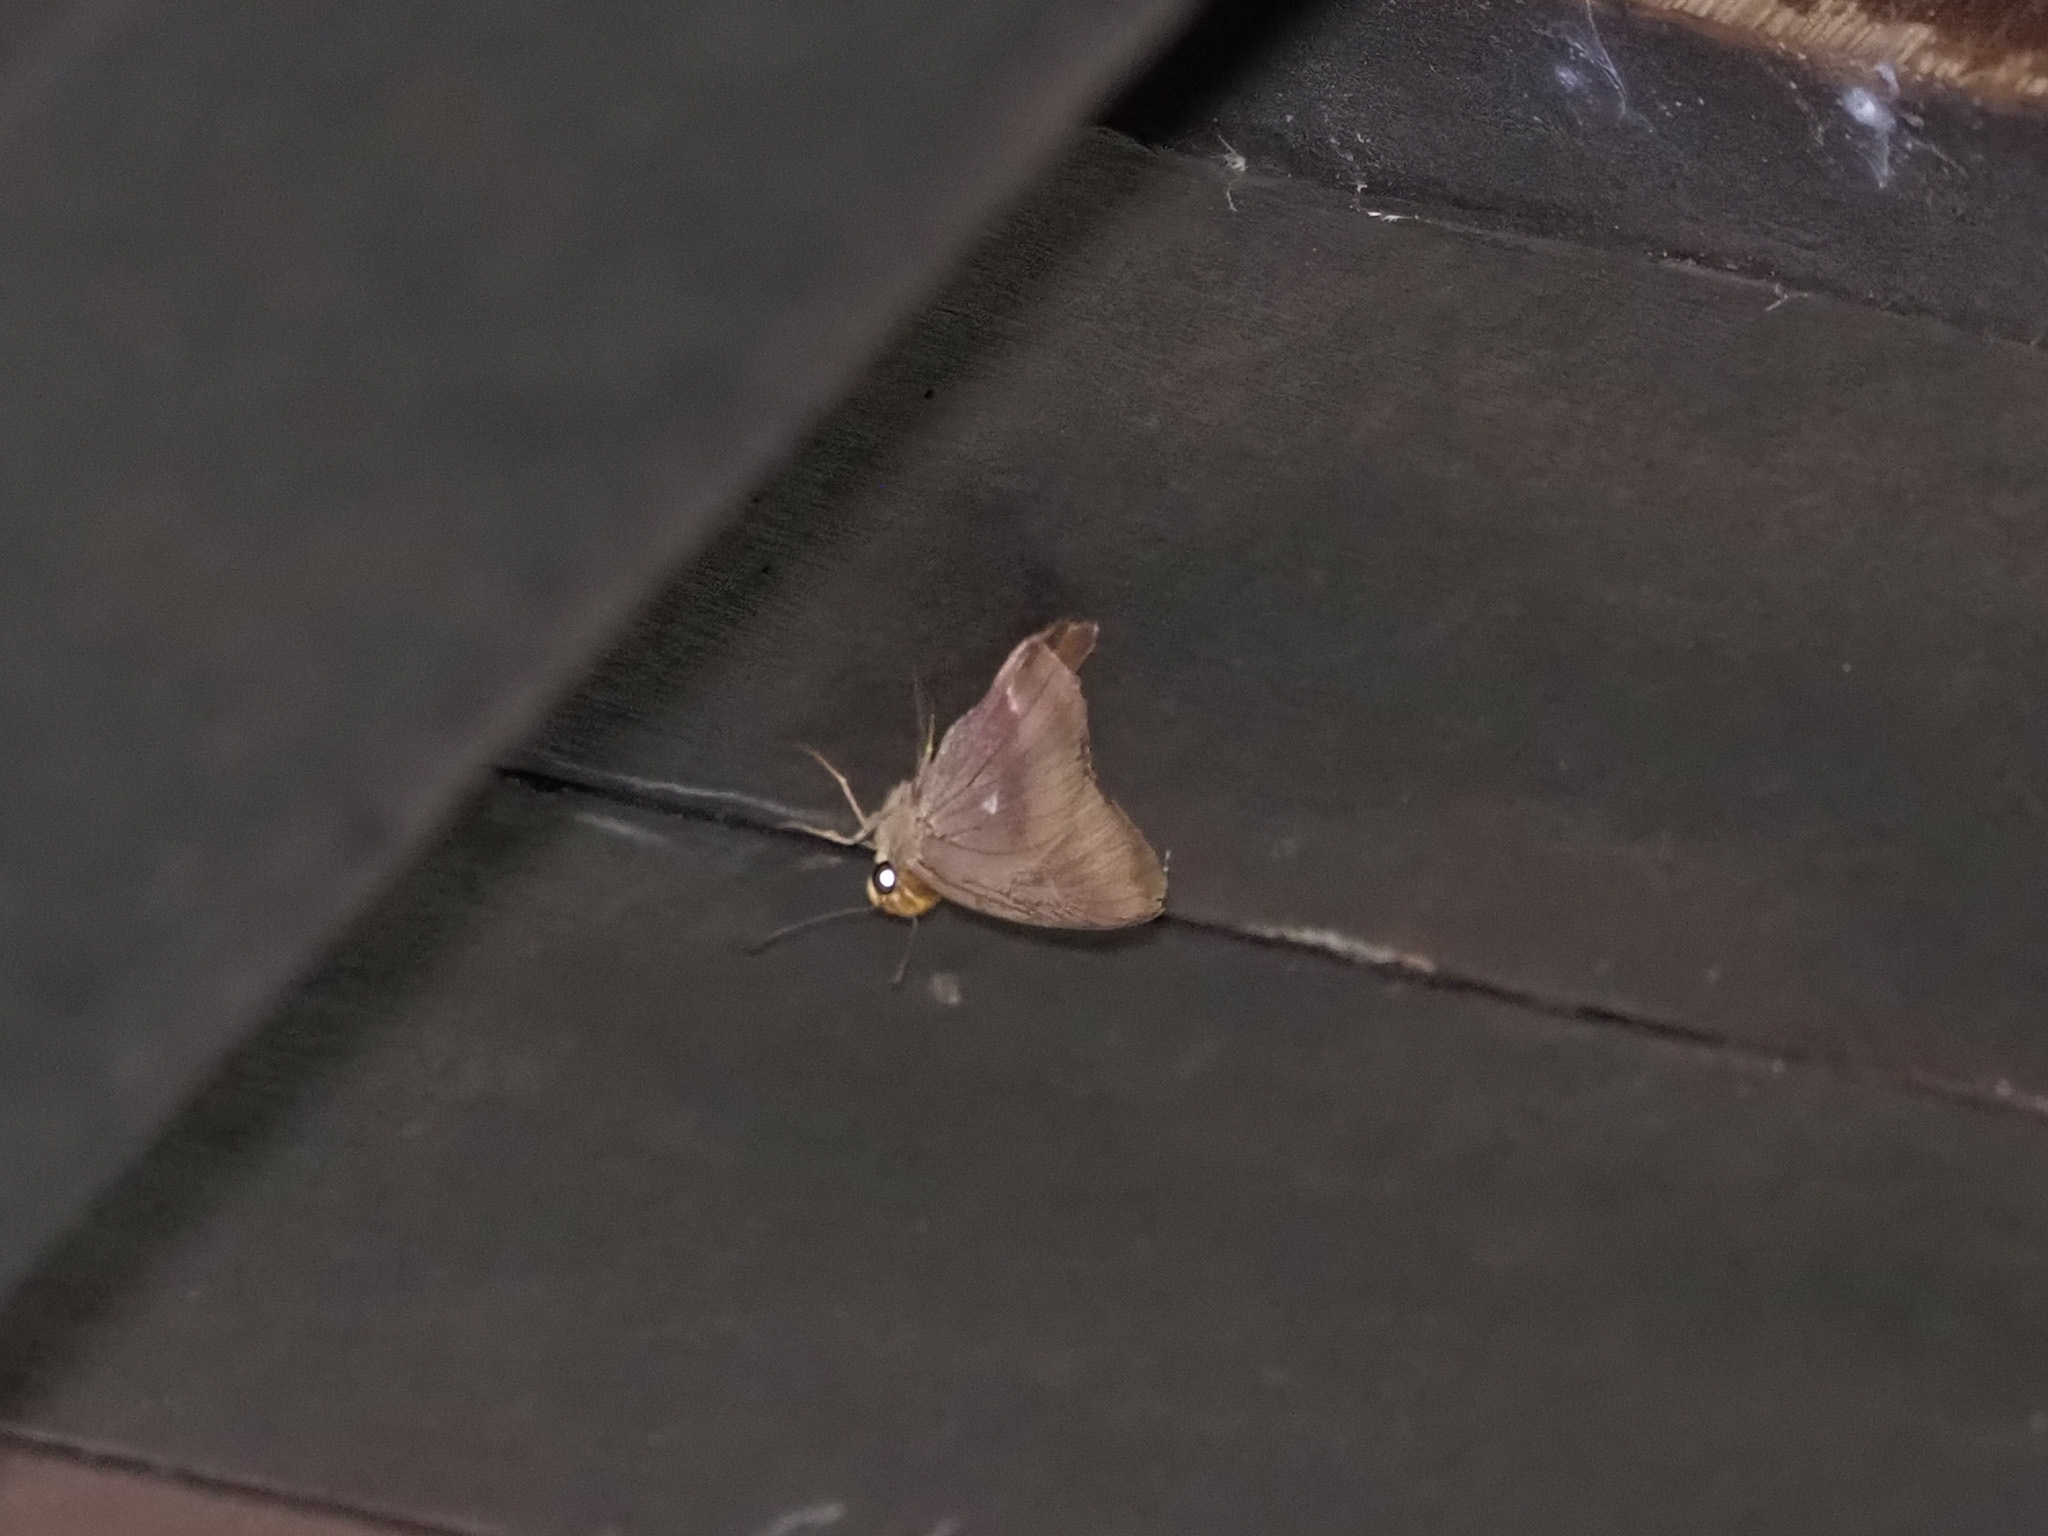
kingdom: Animalia
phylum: Arthropoda
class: Insecta
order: Lepidoptera
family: Hesperiidae
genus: Hasora
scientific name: Hasora badra
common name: Common awl
